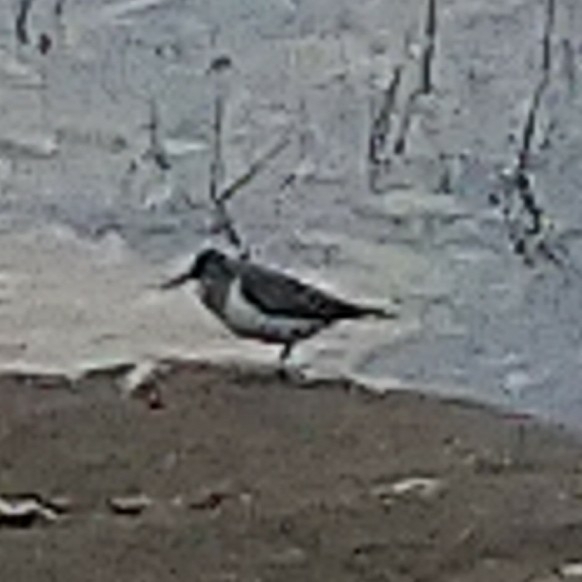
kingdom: Animalia
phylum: Chordata
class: Aves
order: Charadriiformes
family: Scolopacidae
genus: Actitis
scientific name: Actitis hypoleucos
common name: Common sandpiper
